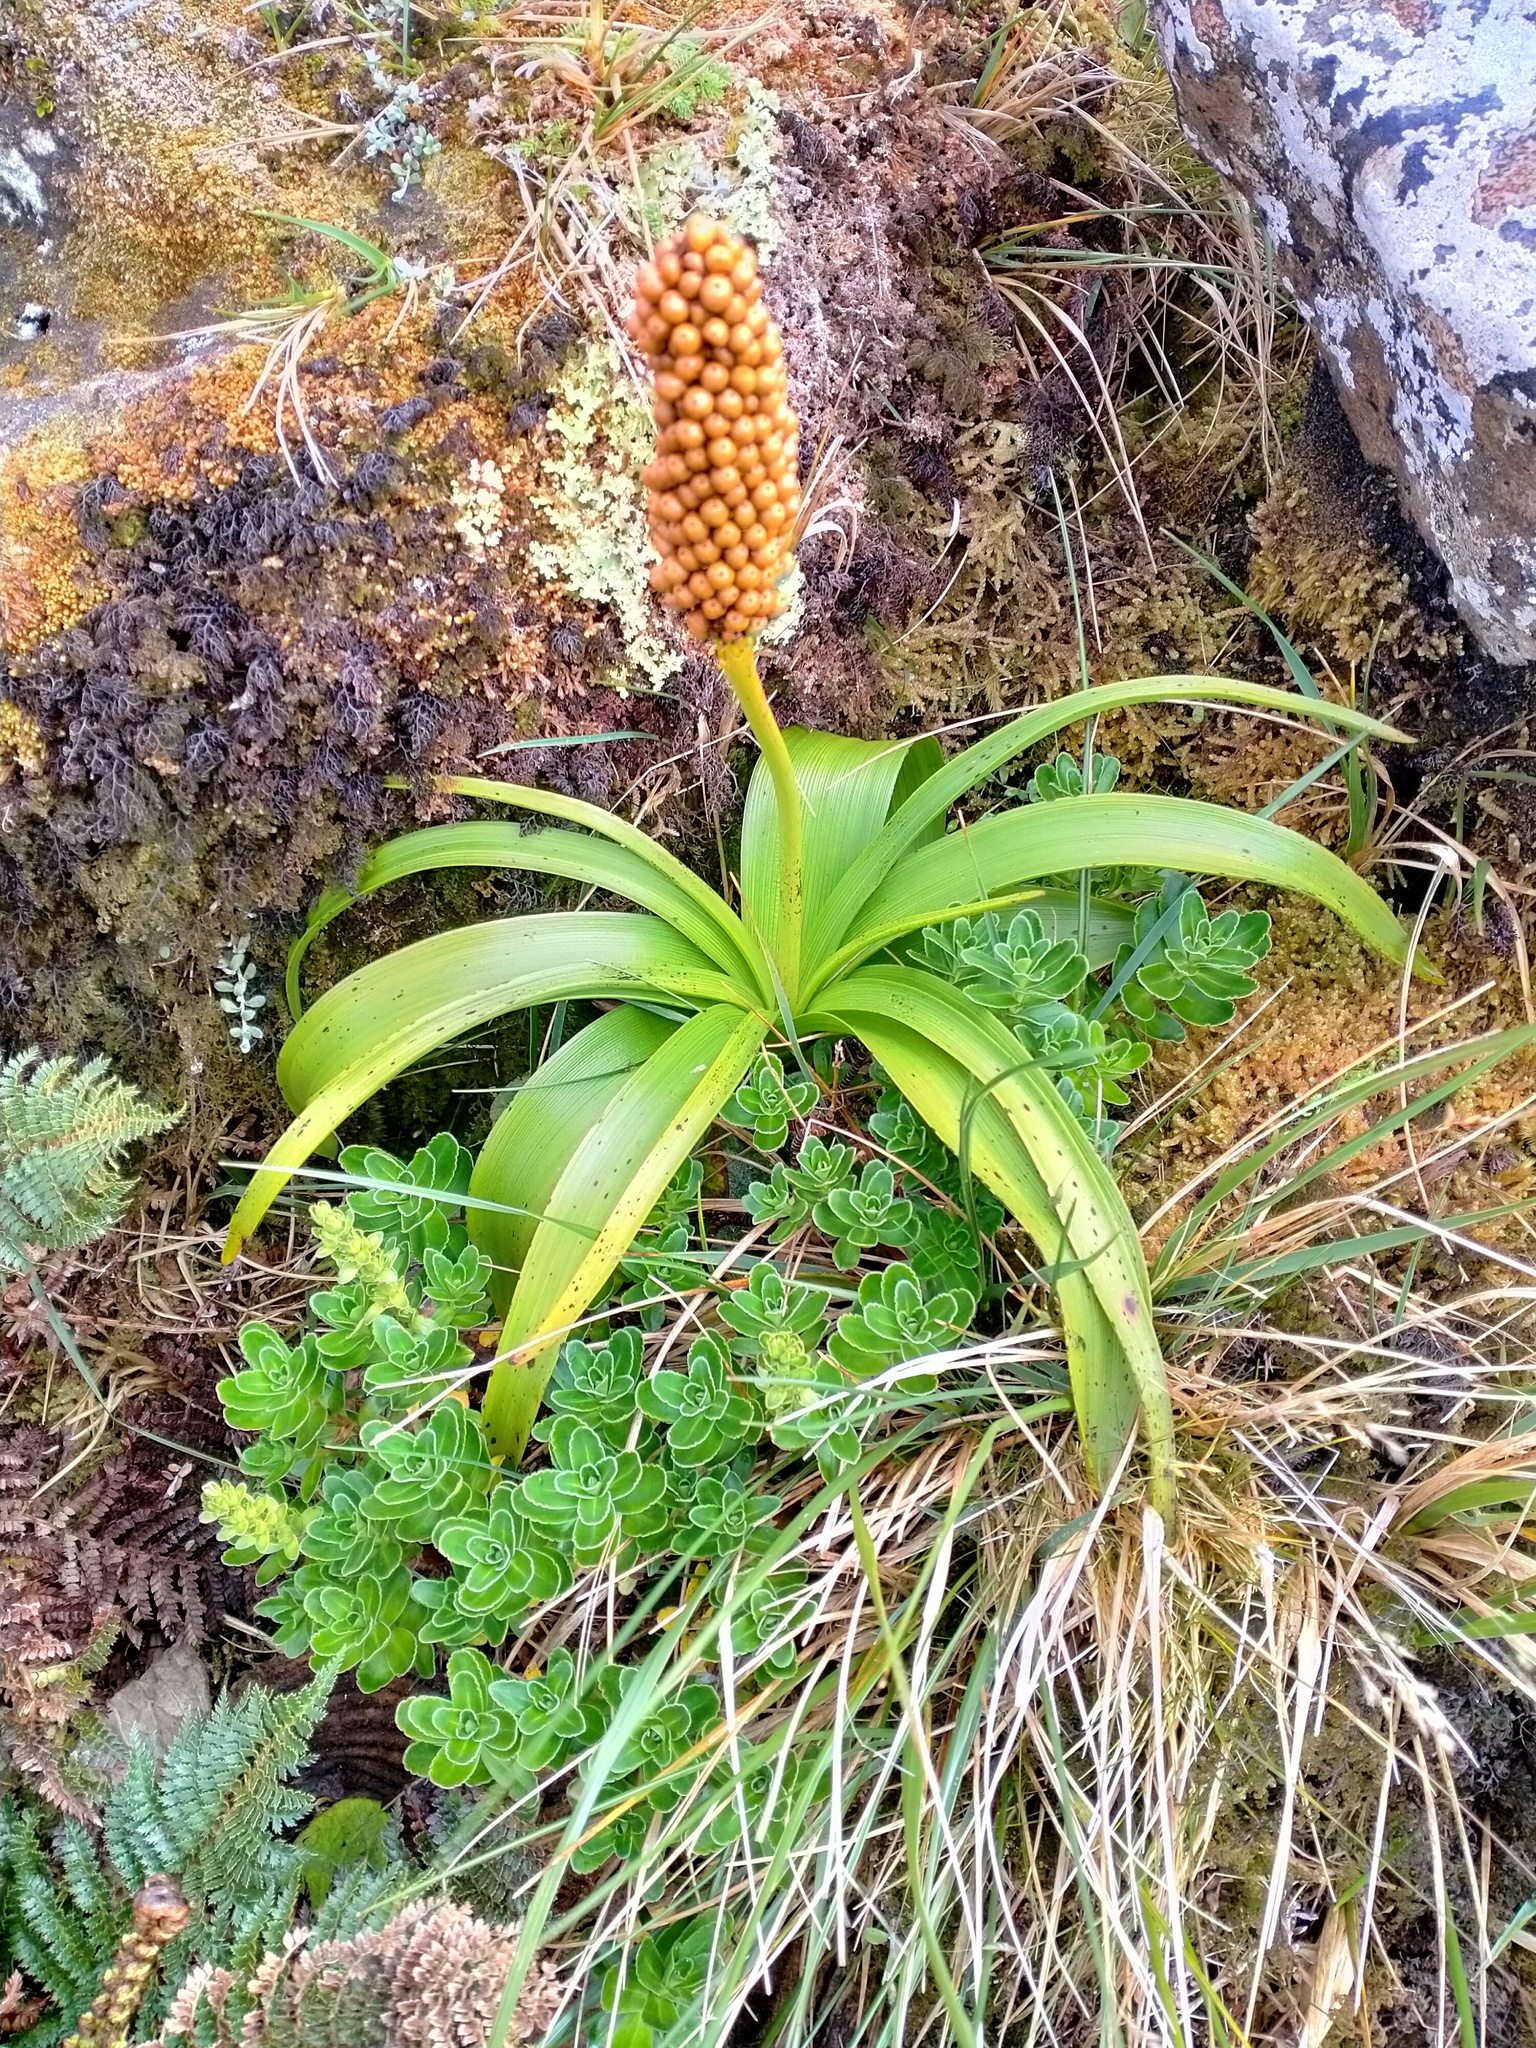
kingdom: Plantae
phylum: Tracheophyta
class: Liliopsida
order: Asparagales
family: Asphodelaceae
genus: Bulbinella
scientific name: Bulbinella rossii
